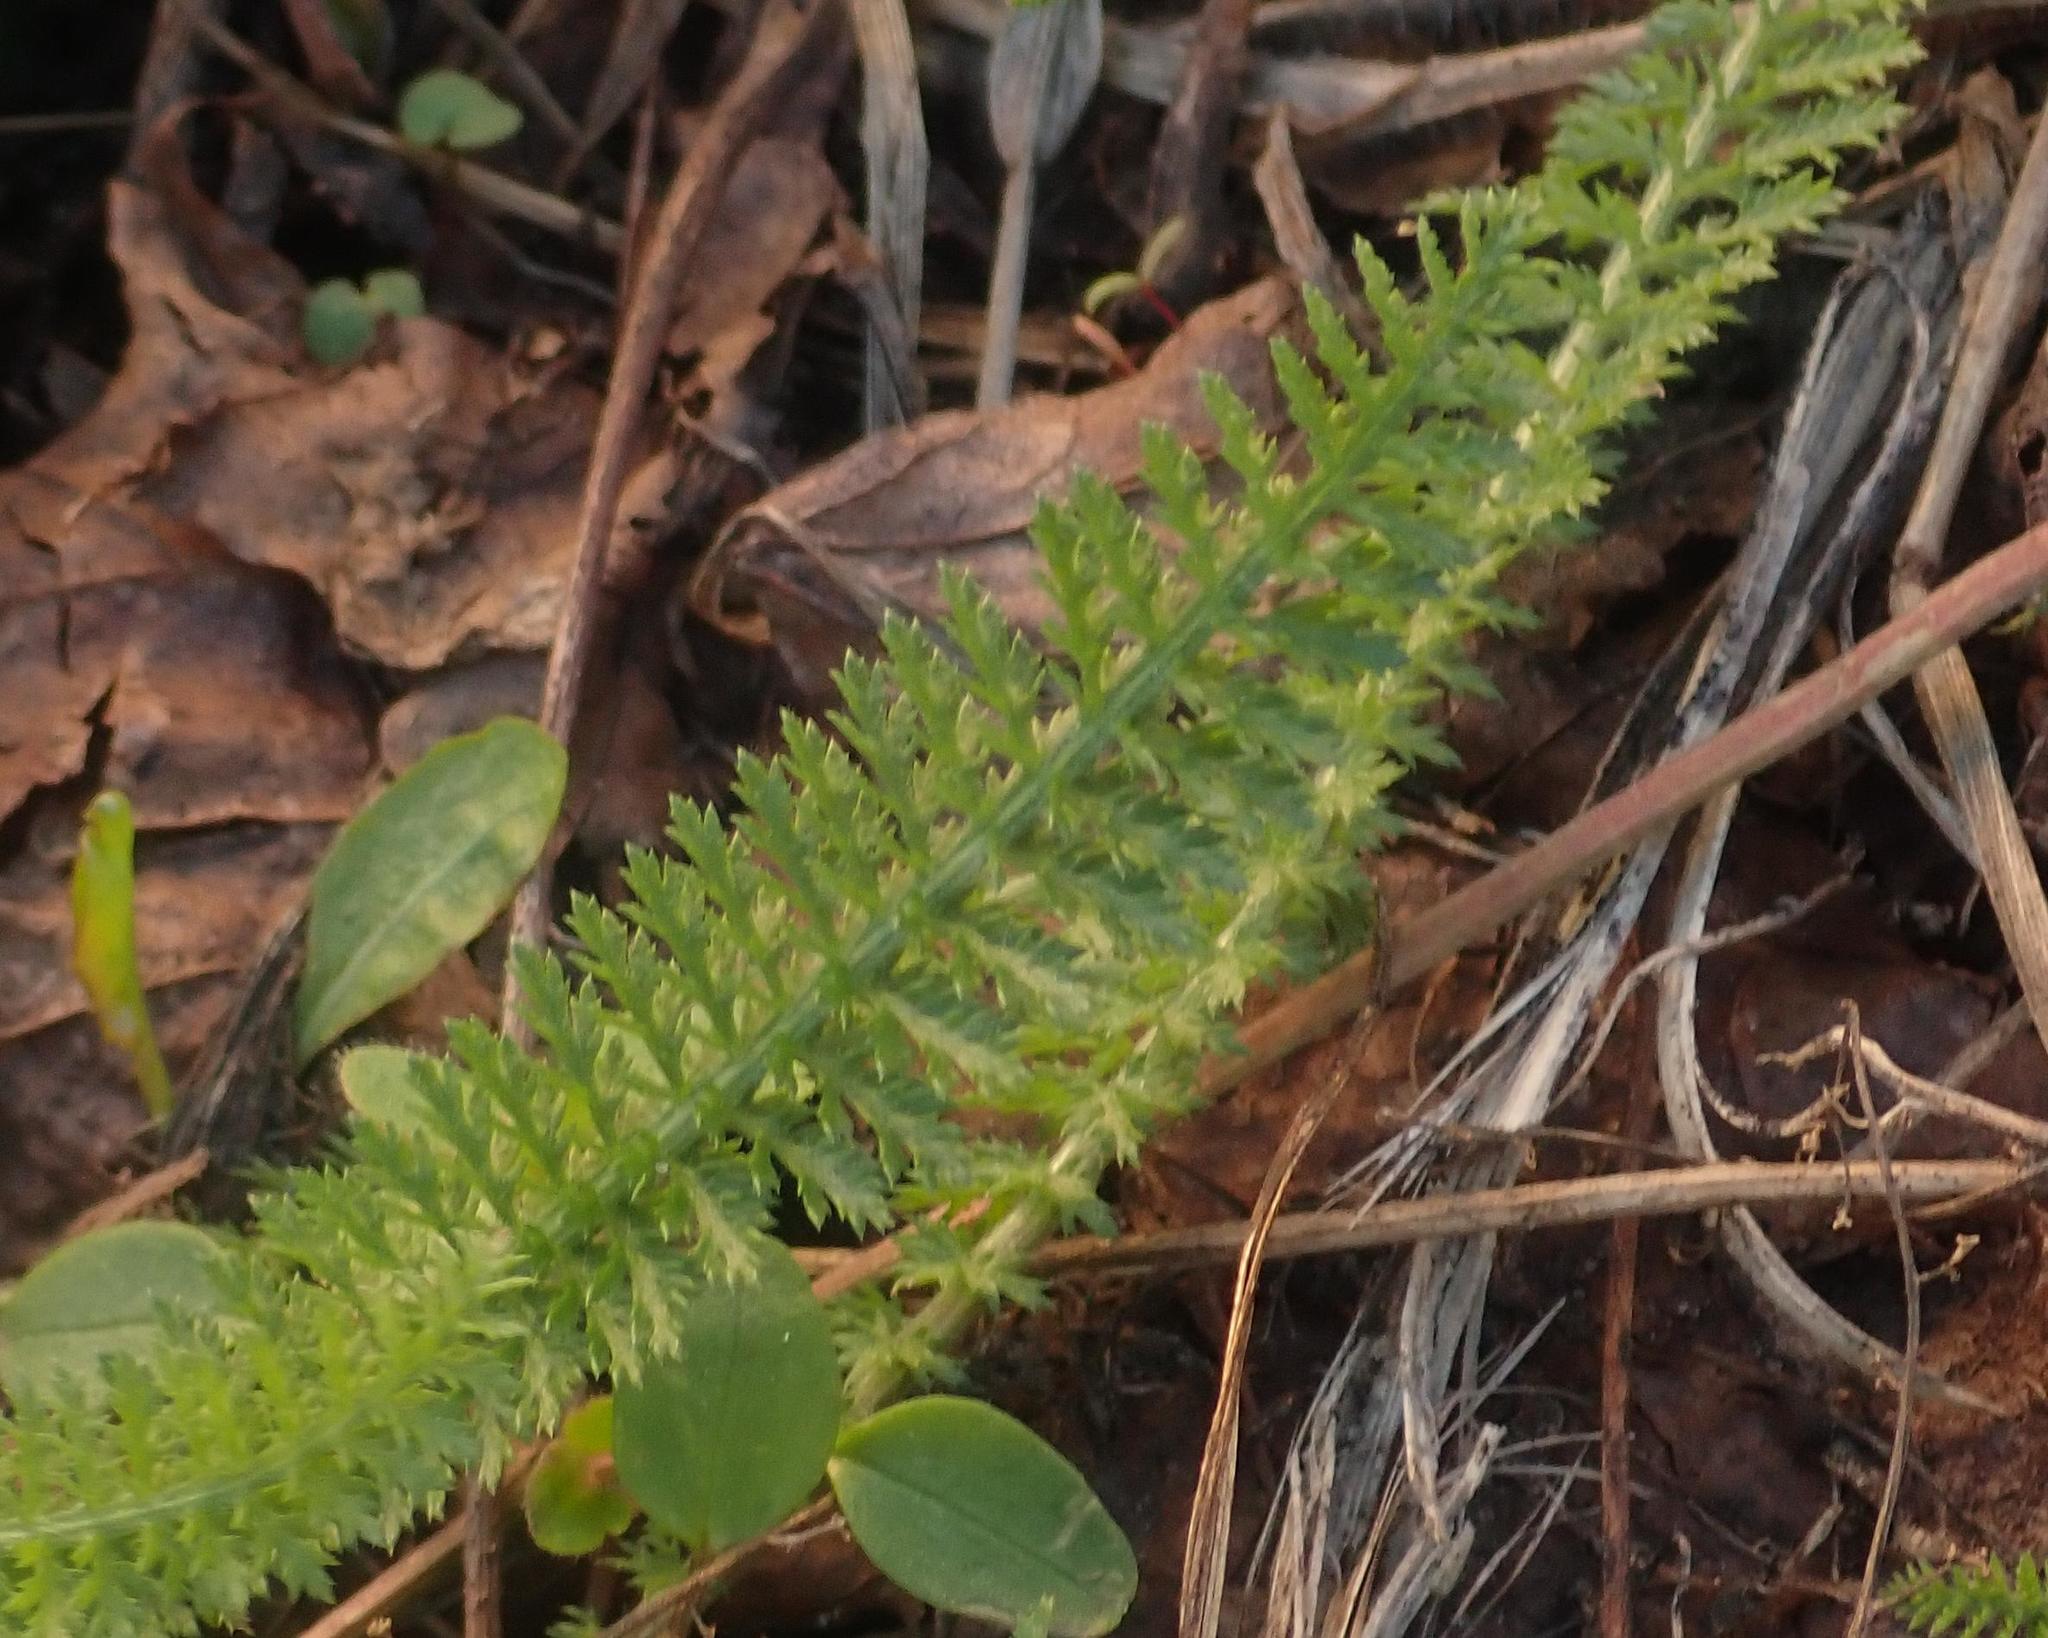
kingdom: Plantae
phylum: Tracheophyta
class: Magnoliopsida
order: Asterales
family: Asteraceae
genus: Achillea
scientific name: Achillea millefolium
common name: Yarrow
